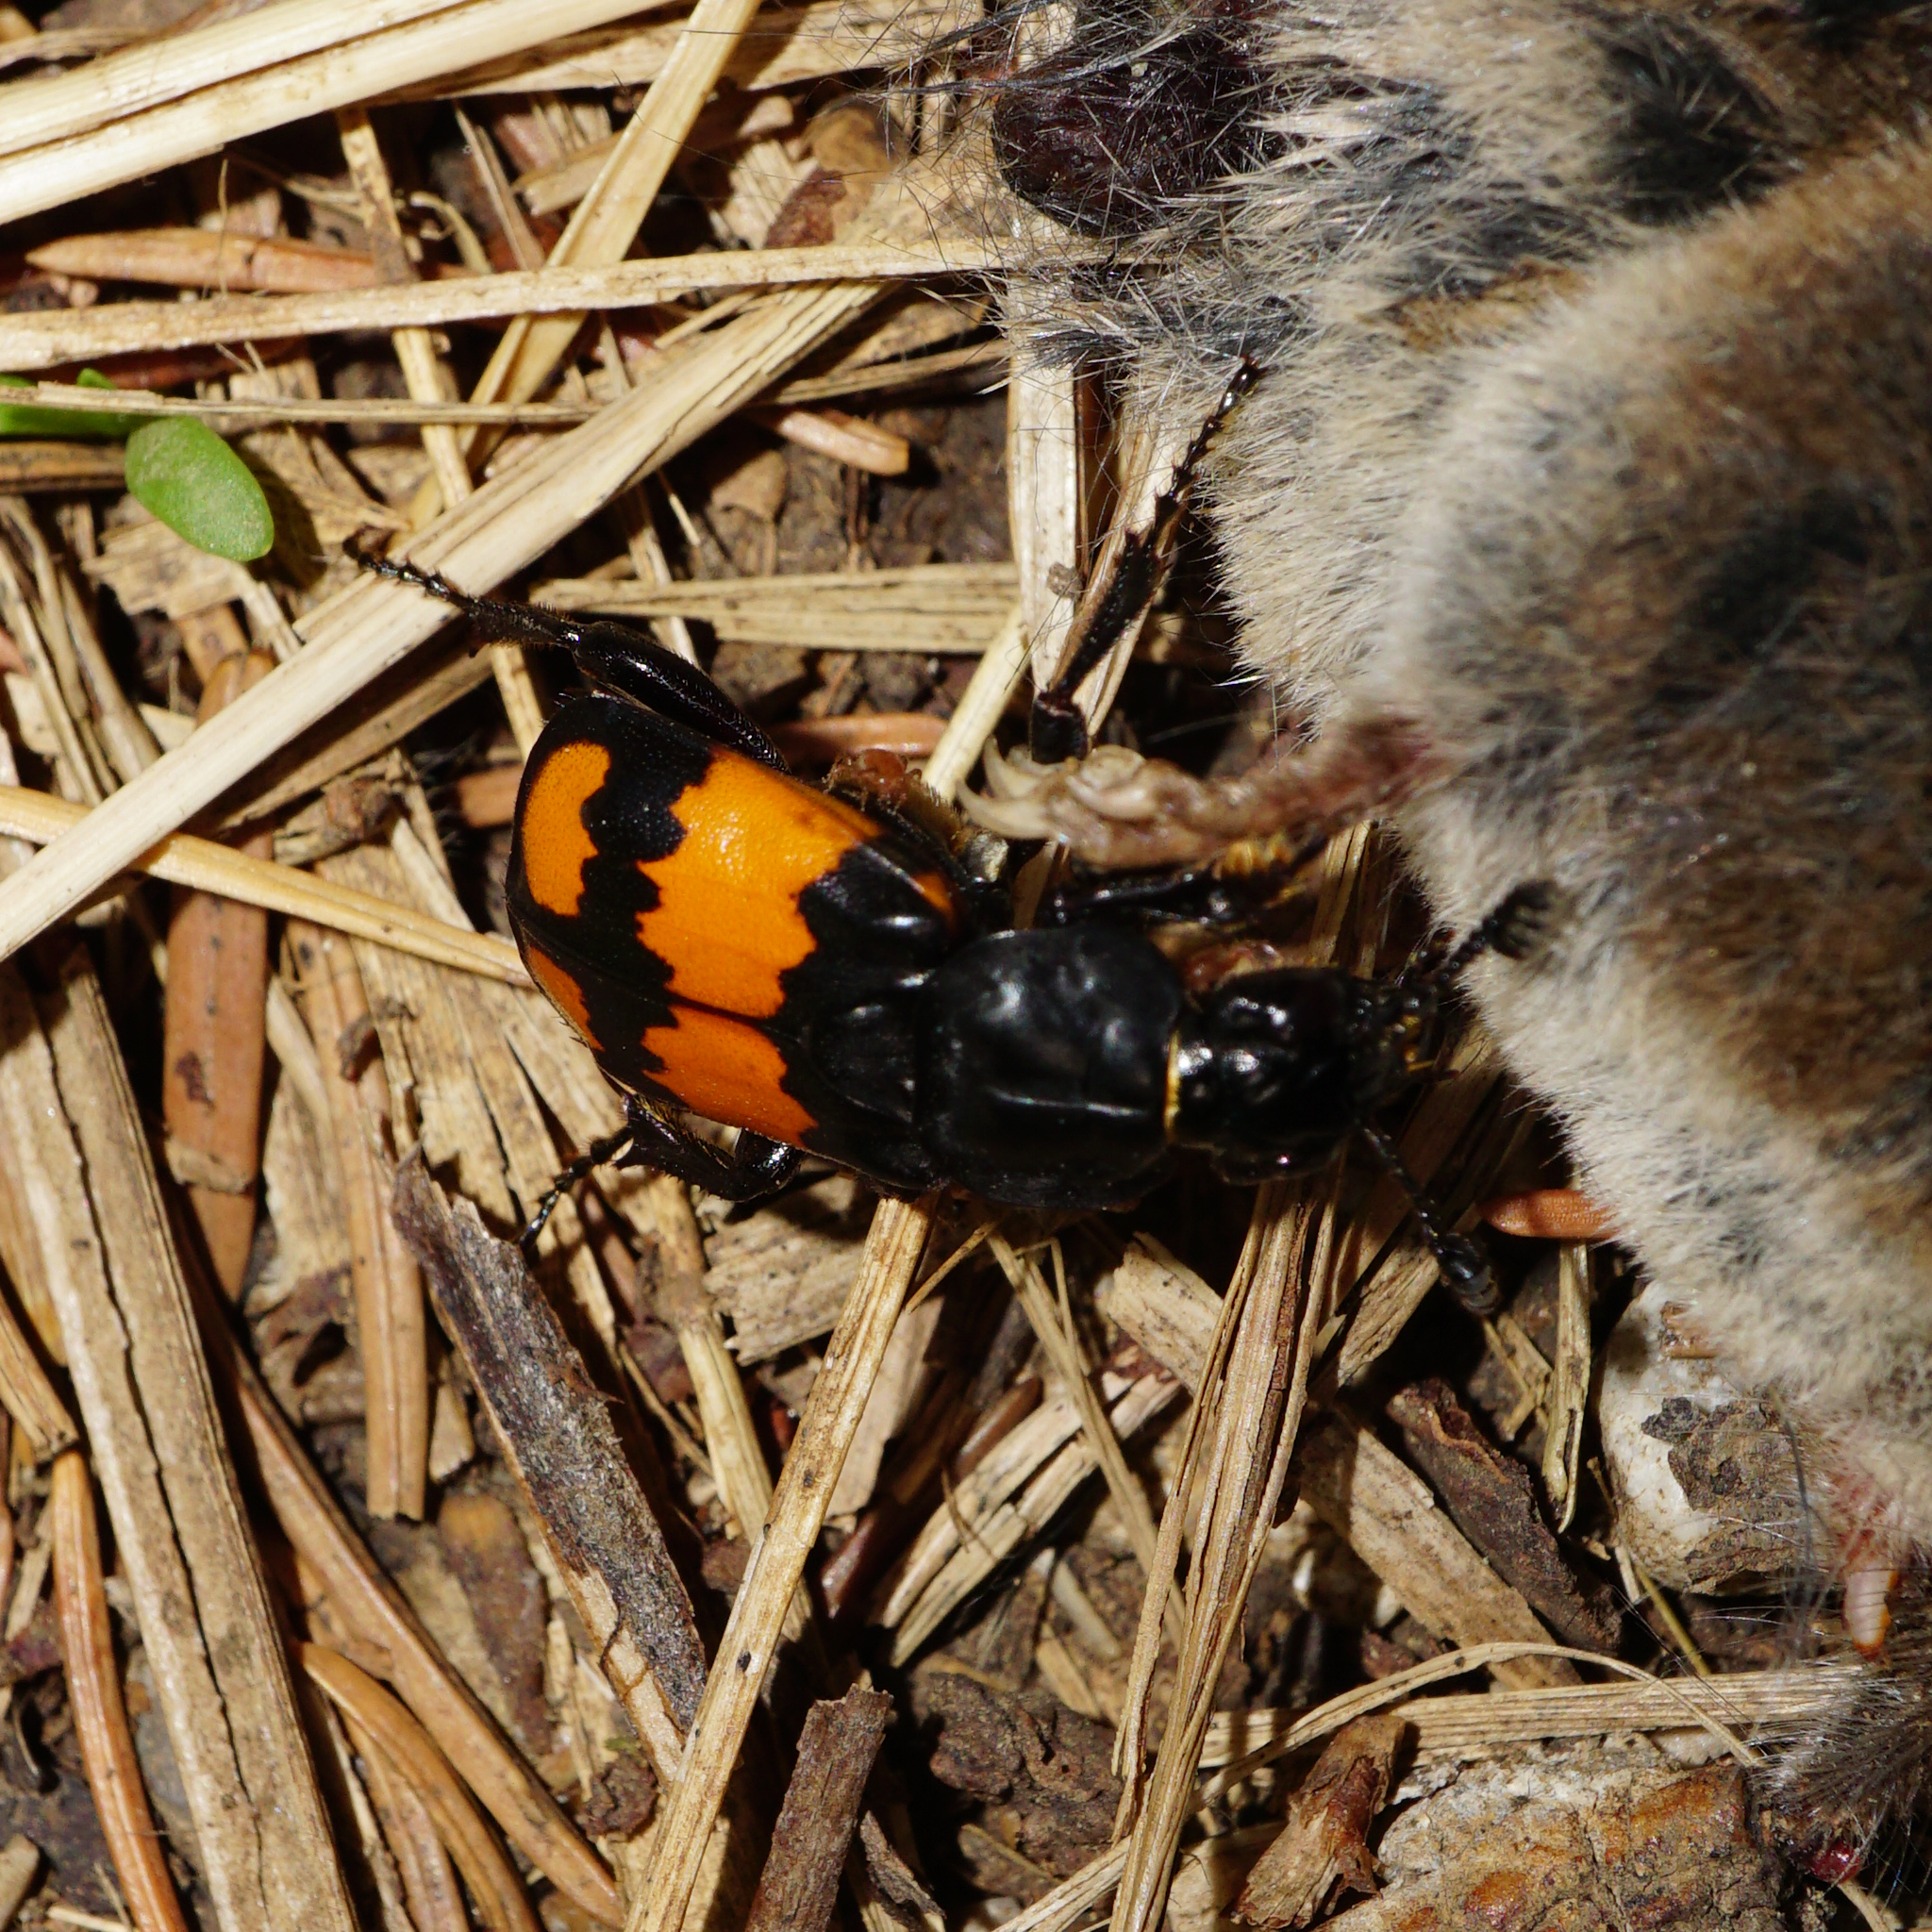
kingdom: Animalia
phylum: Arthropoda
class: Insecta
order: Coleoptera
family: Staphylinidae
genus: Nicrophorus
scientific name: Nicrophorus vespilloides
